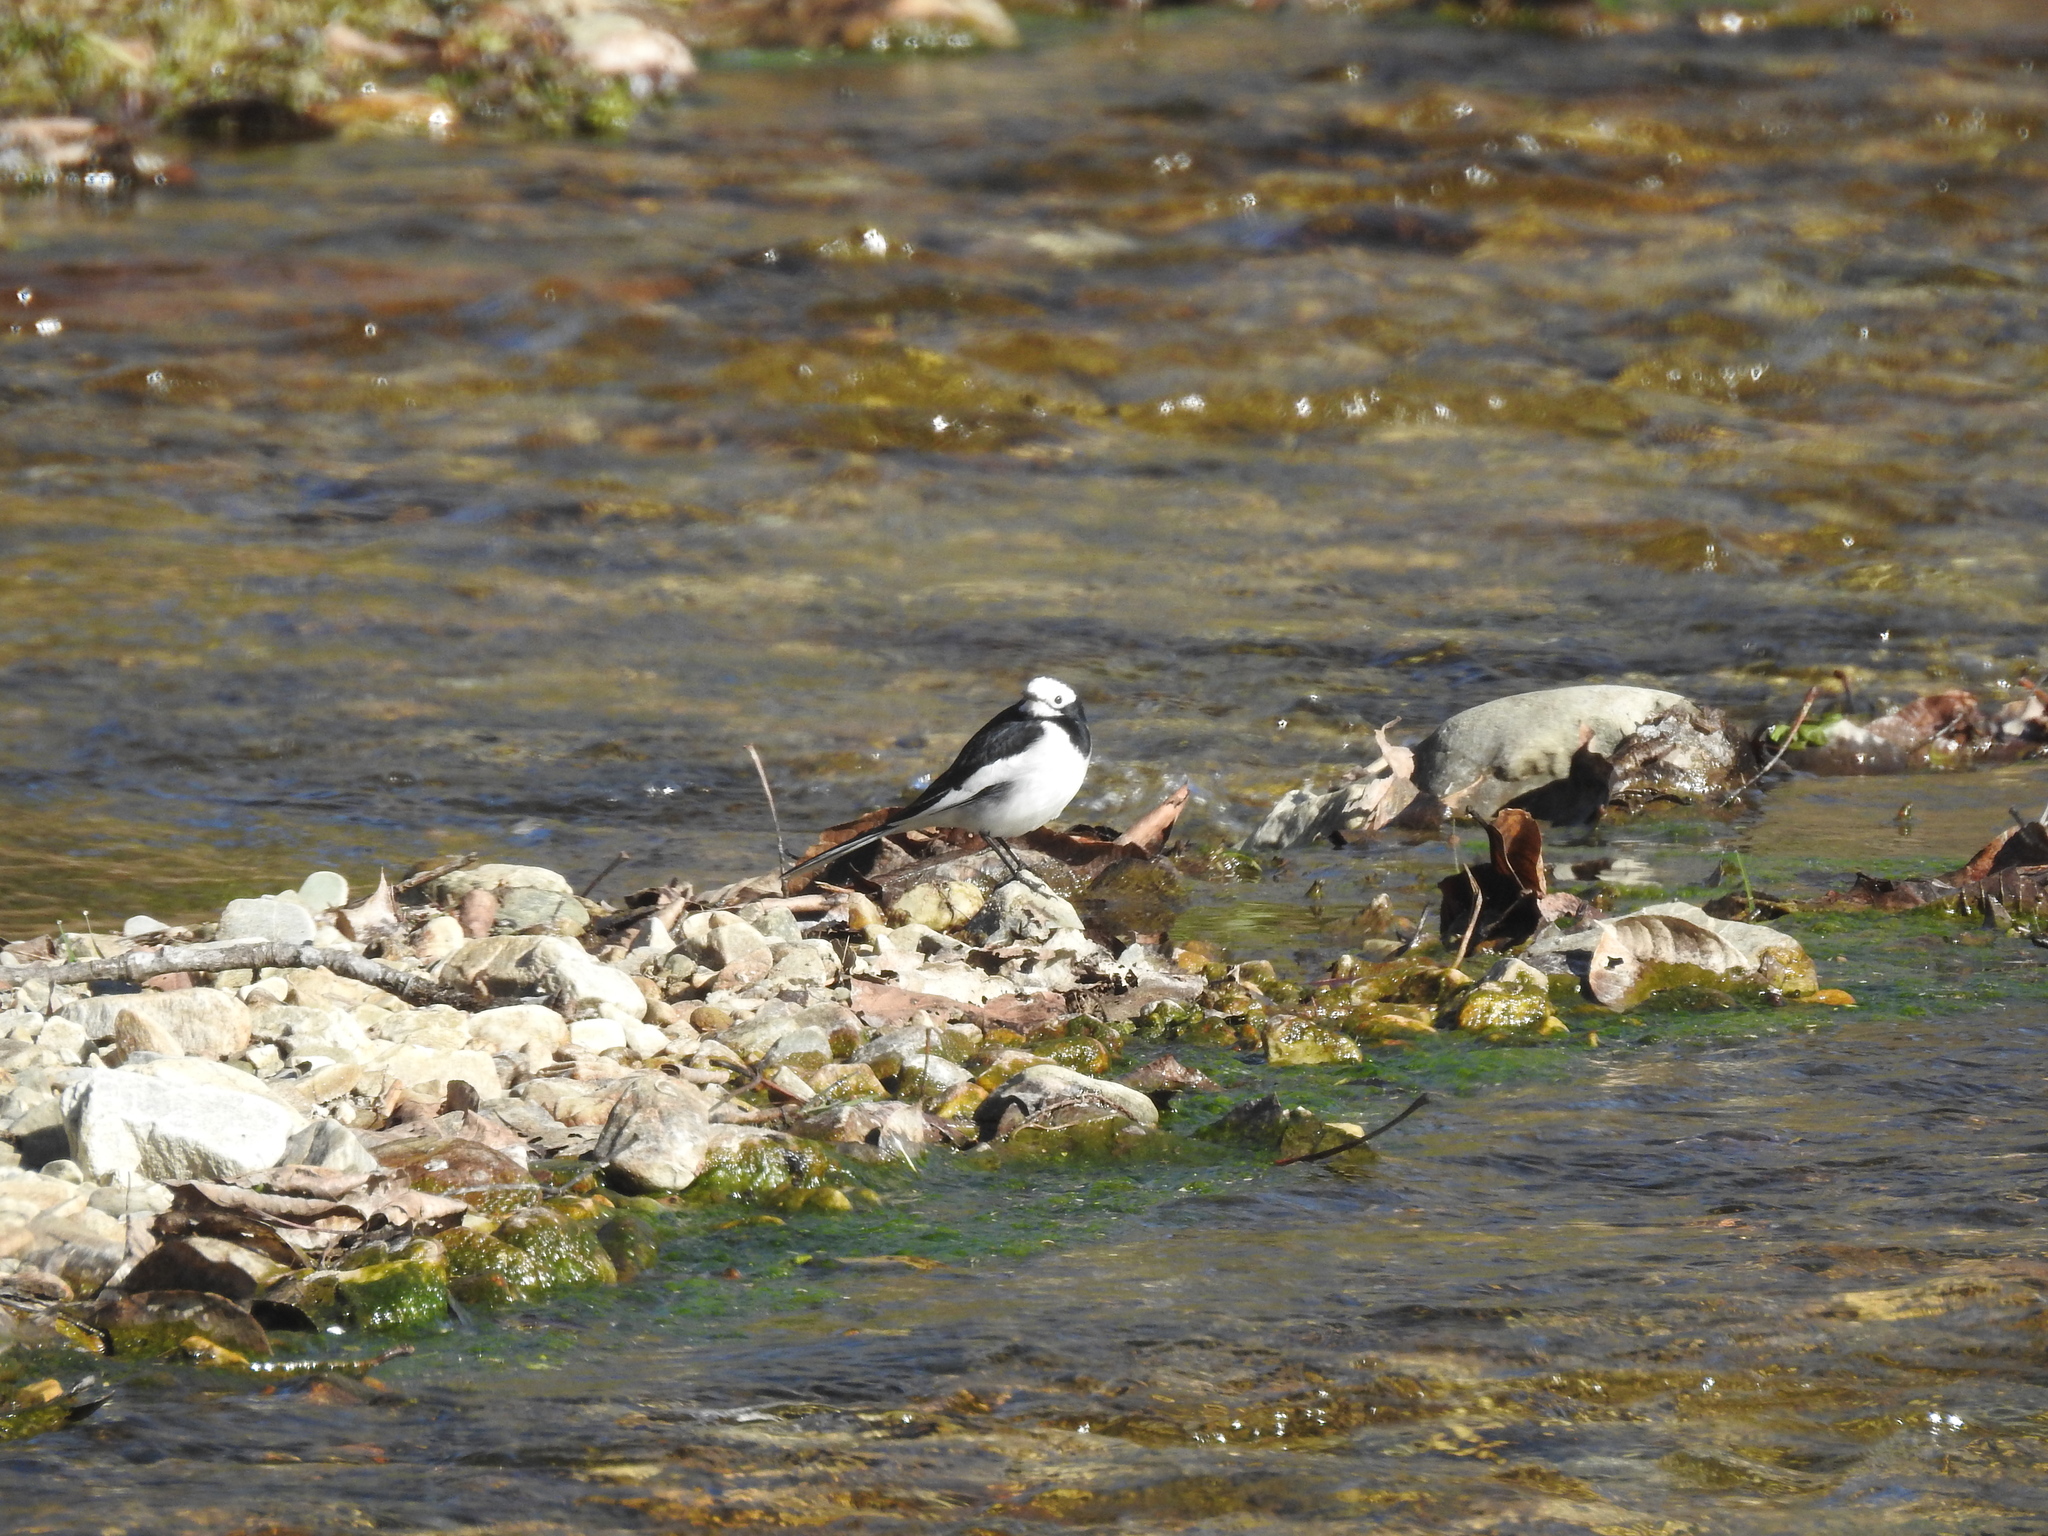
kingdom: Animalia
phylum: Chordata
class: Aves
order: Passeriformes
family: Motacillidae
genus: Motacilla
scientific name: Motacilla alba
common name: White wagtail
